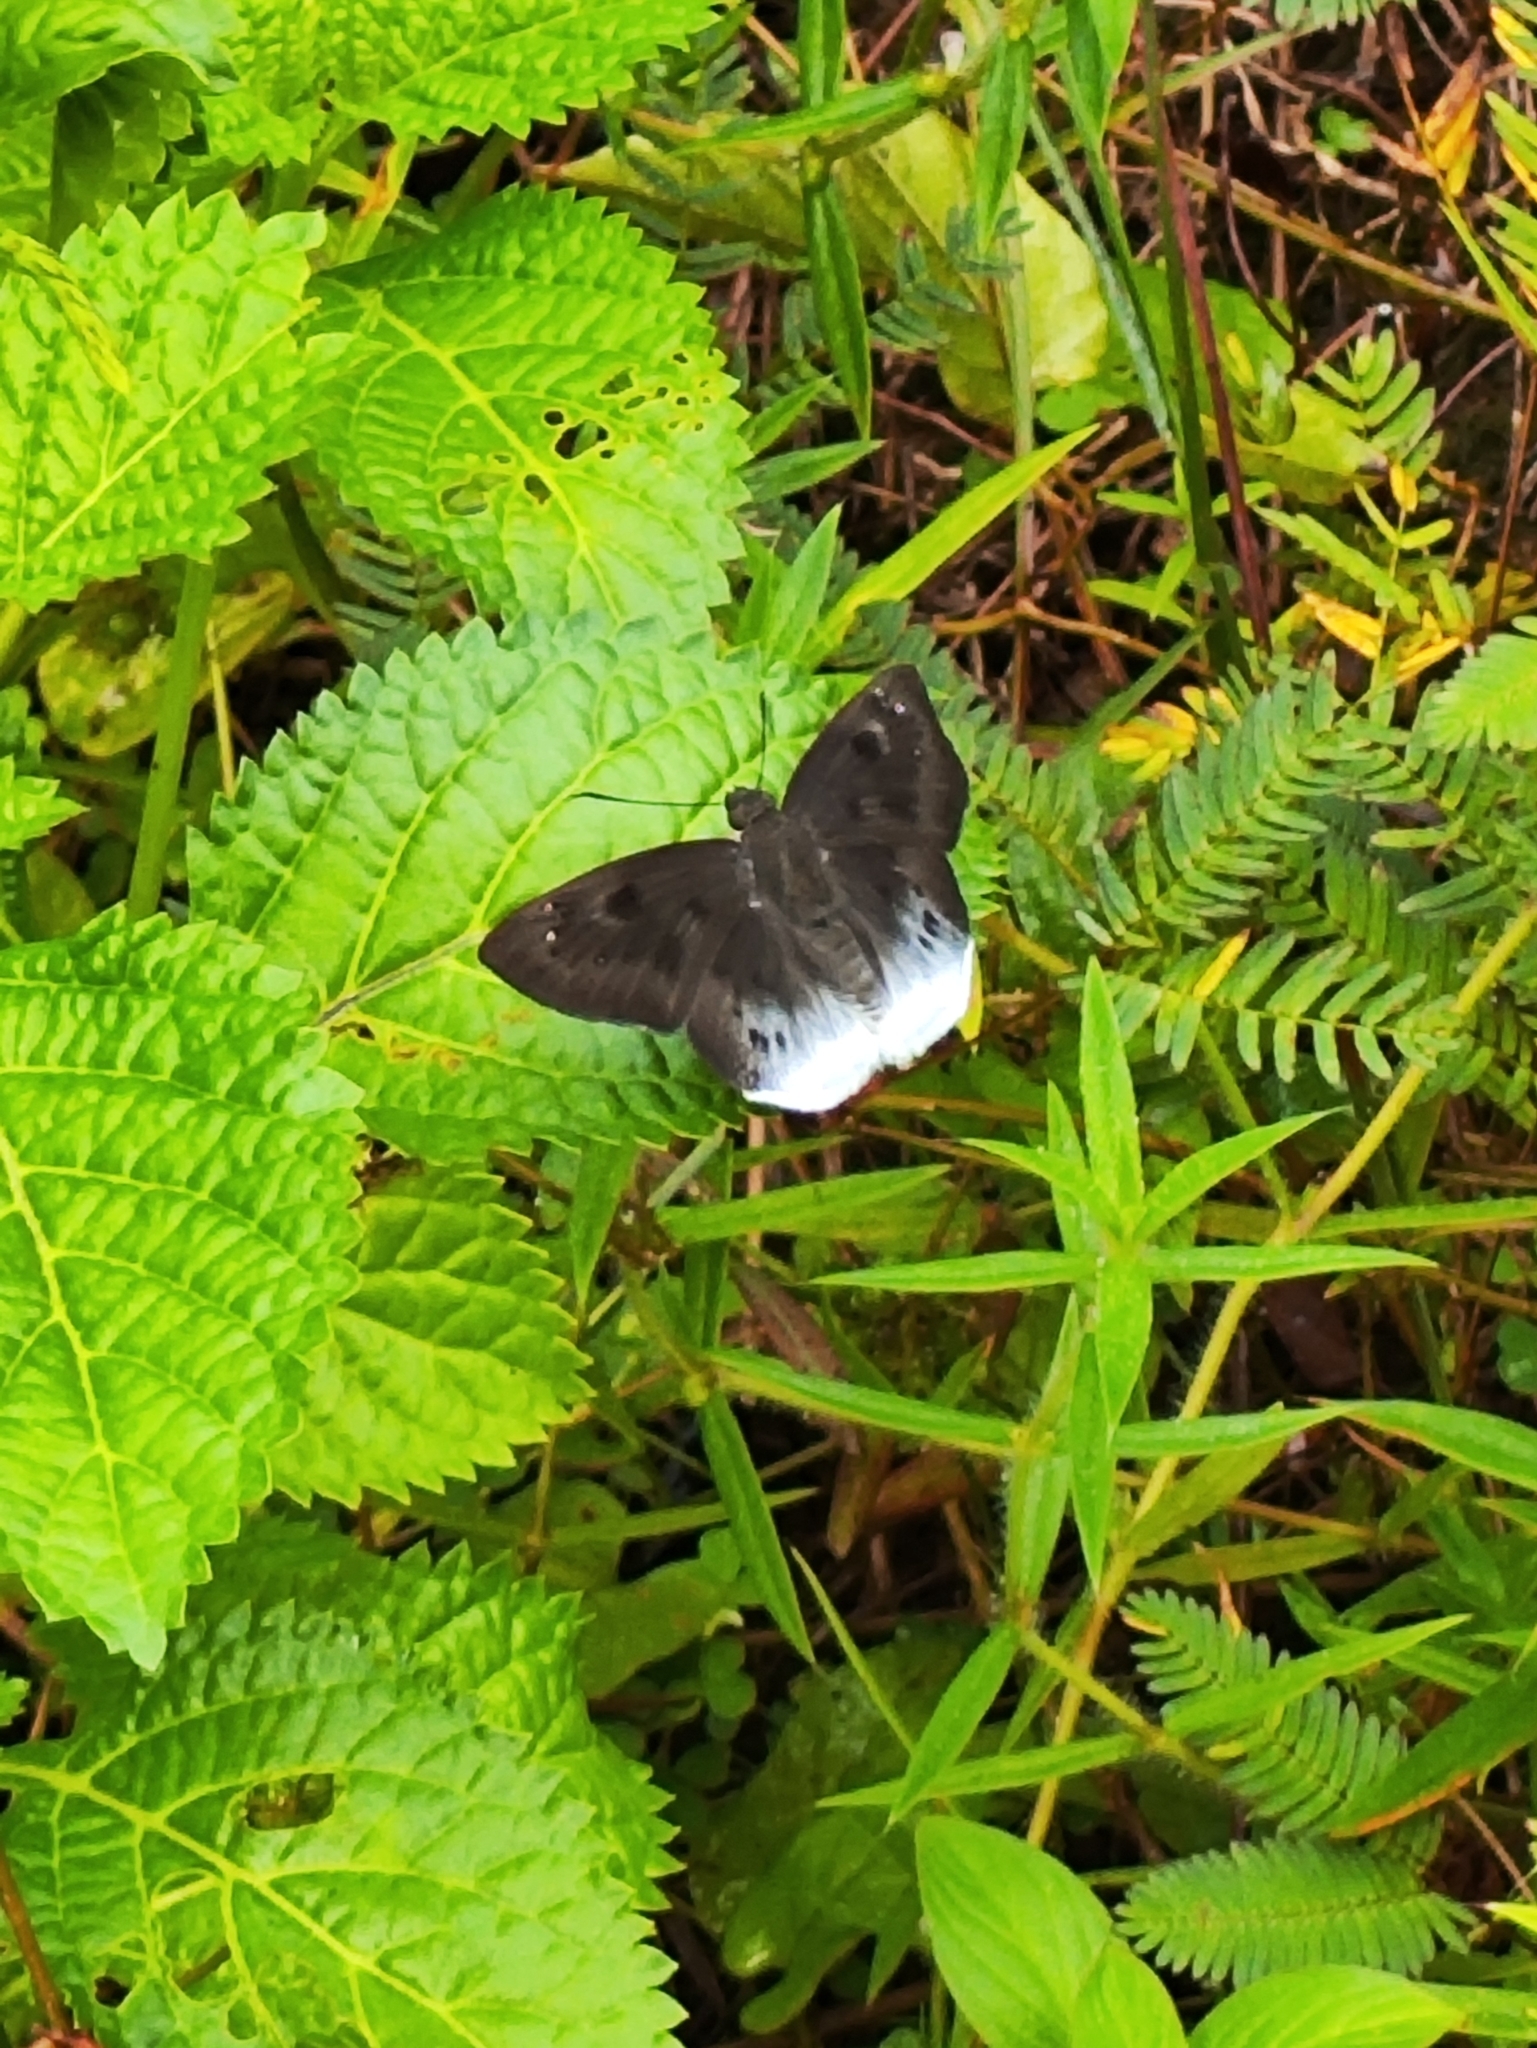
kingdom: Animalia
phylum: Arthropoda
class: Insecta
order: Lepidoptera
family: Hesperiidae
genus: Tagiades
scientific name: Tagiades gana
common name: Suffused snow flat
